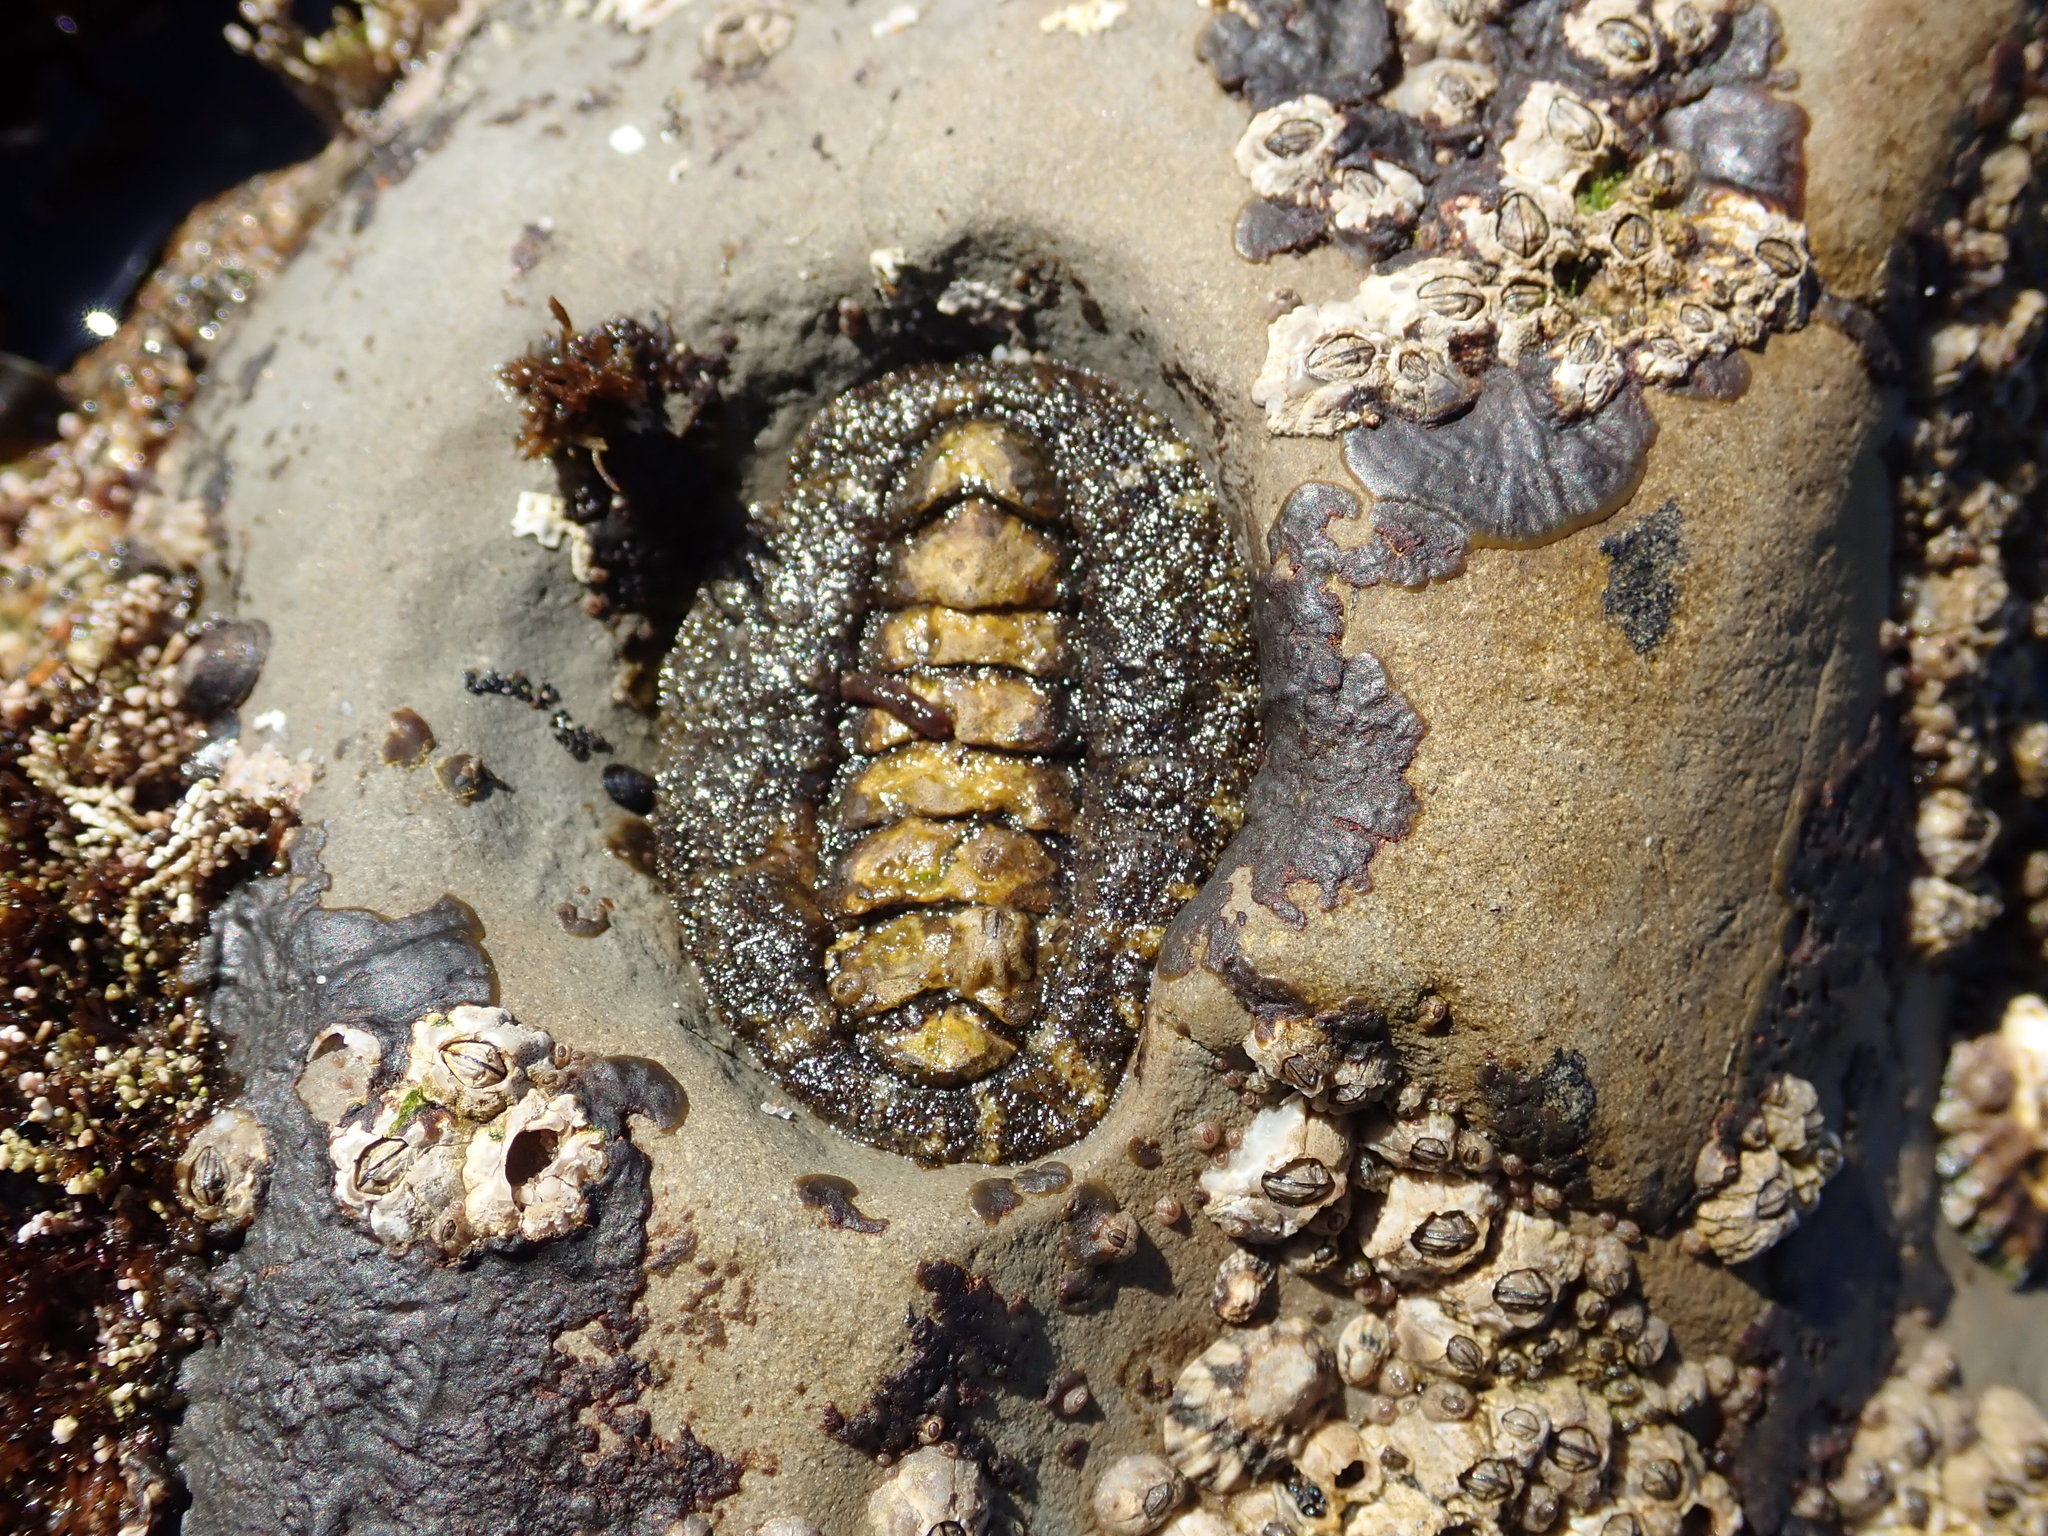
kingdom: Animalia
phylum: Mollusca
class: Polyplacophora
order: Chitonida
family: Tonicellidae
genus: Nuttallina
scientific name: Nuttallina californica
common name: California nuttall chiton
